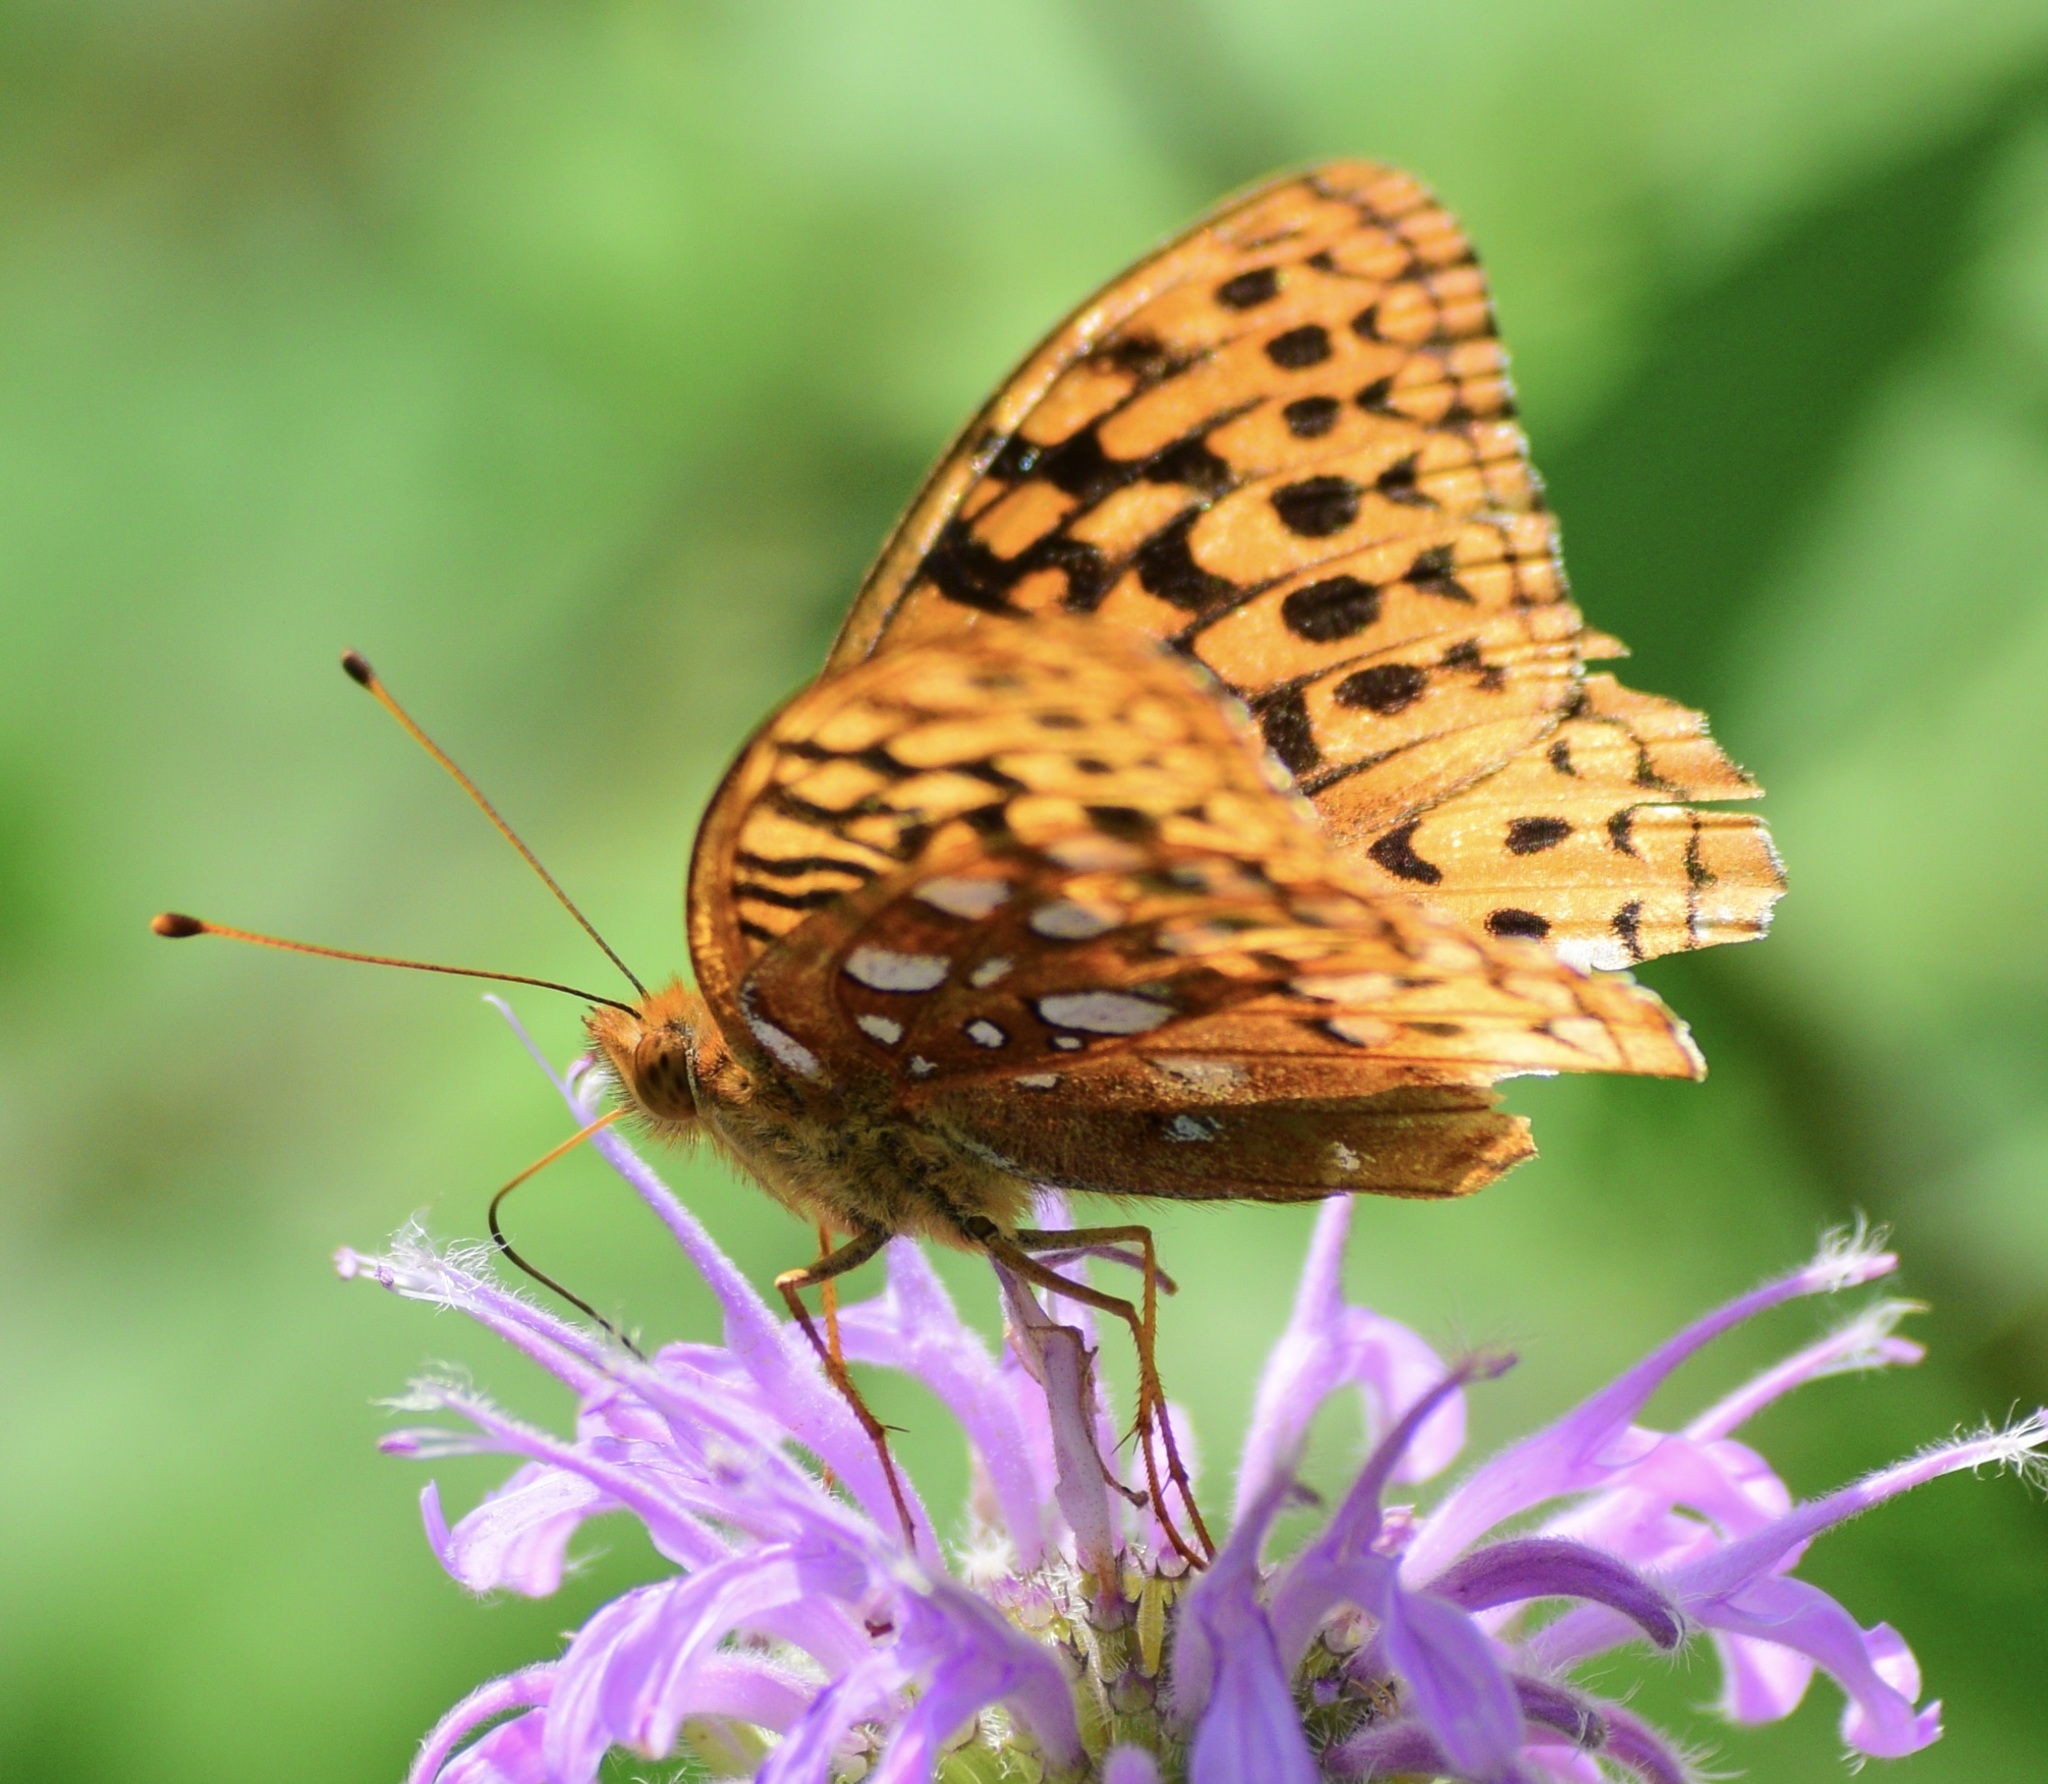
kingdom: Animalia
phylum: Arthropoda
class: Insecta
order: Lepidoptera
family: Nymphalidae
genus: Speyeria
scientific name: Speyeria cybele
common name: Great spangled fritillary
